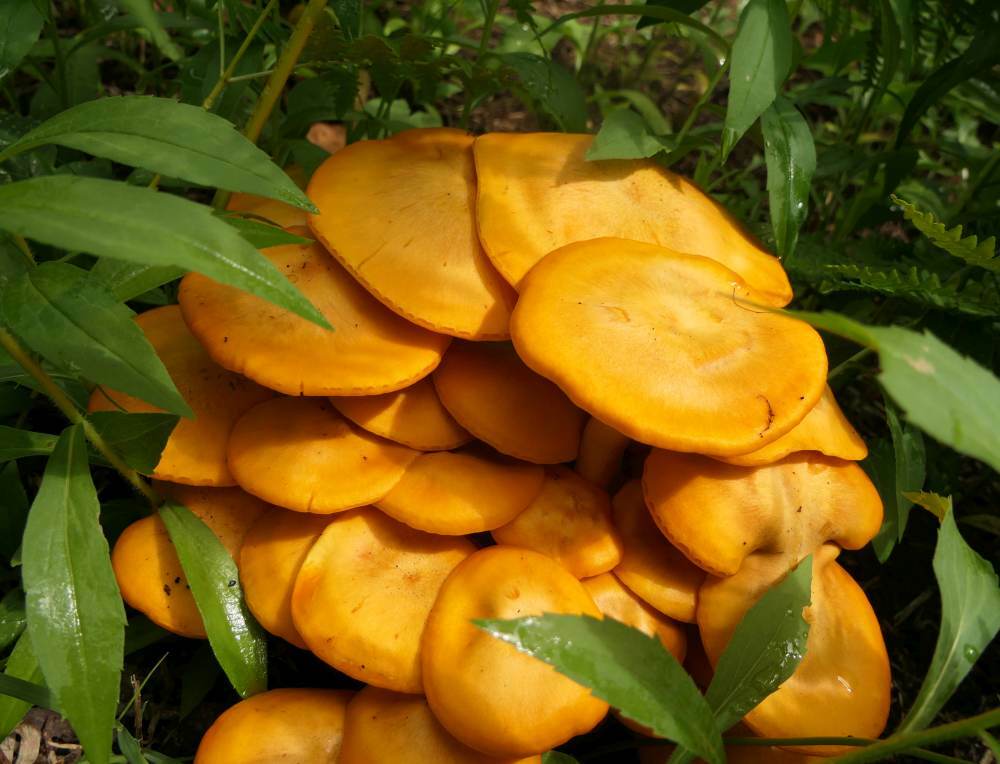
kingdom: Fungi
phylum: Basidiomycota
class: Agaricomycetes
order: Agaricales
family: Omphalotaceae
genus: Omphalotus
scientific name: Omphalotus illudens
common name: Jack o lantern
